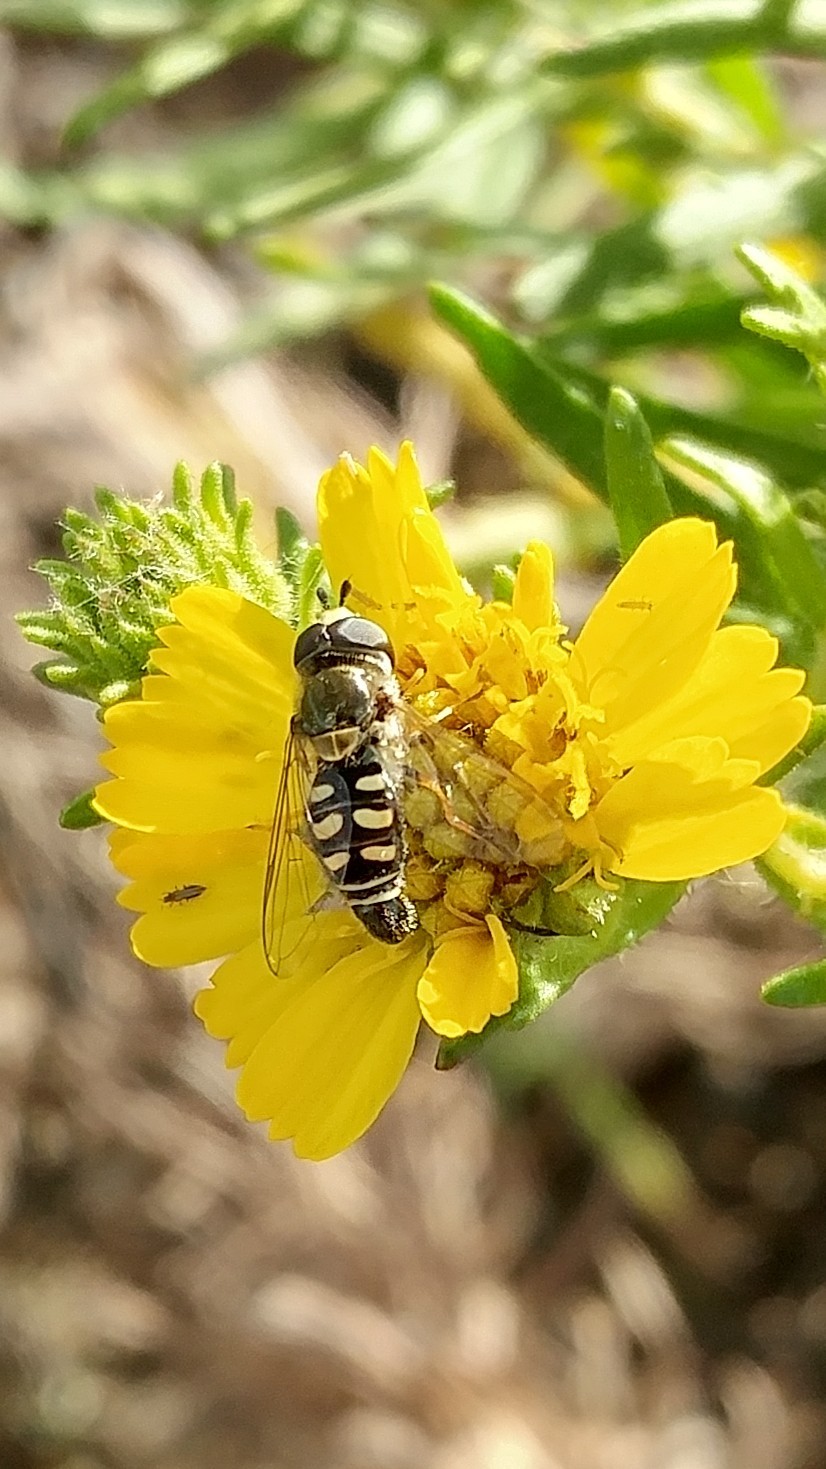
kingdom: Animalia
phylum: Arthropoda
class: Insecta
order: Diptera
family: Syrphidae
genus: Eupeodes
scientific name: Eupeodes volucris
